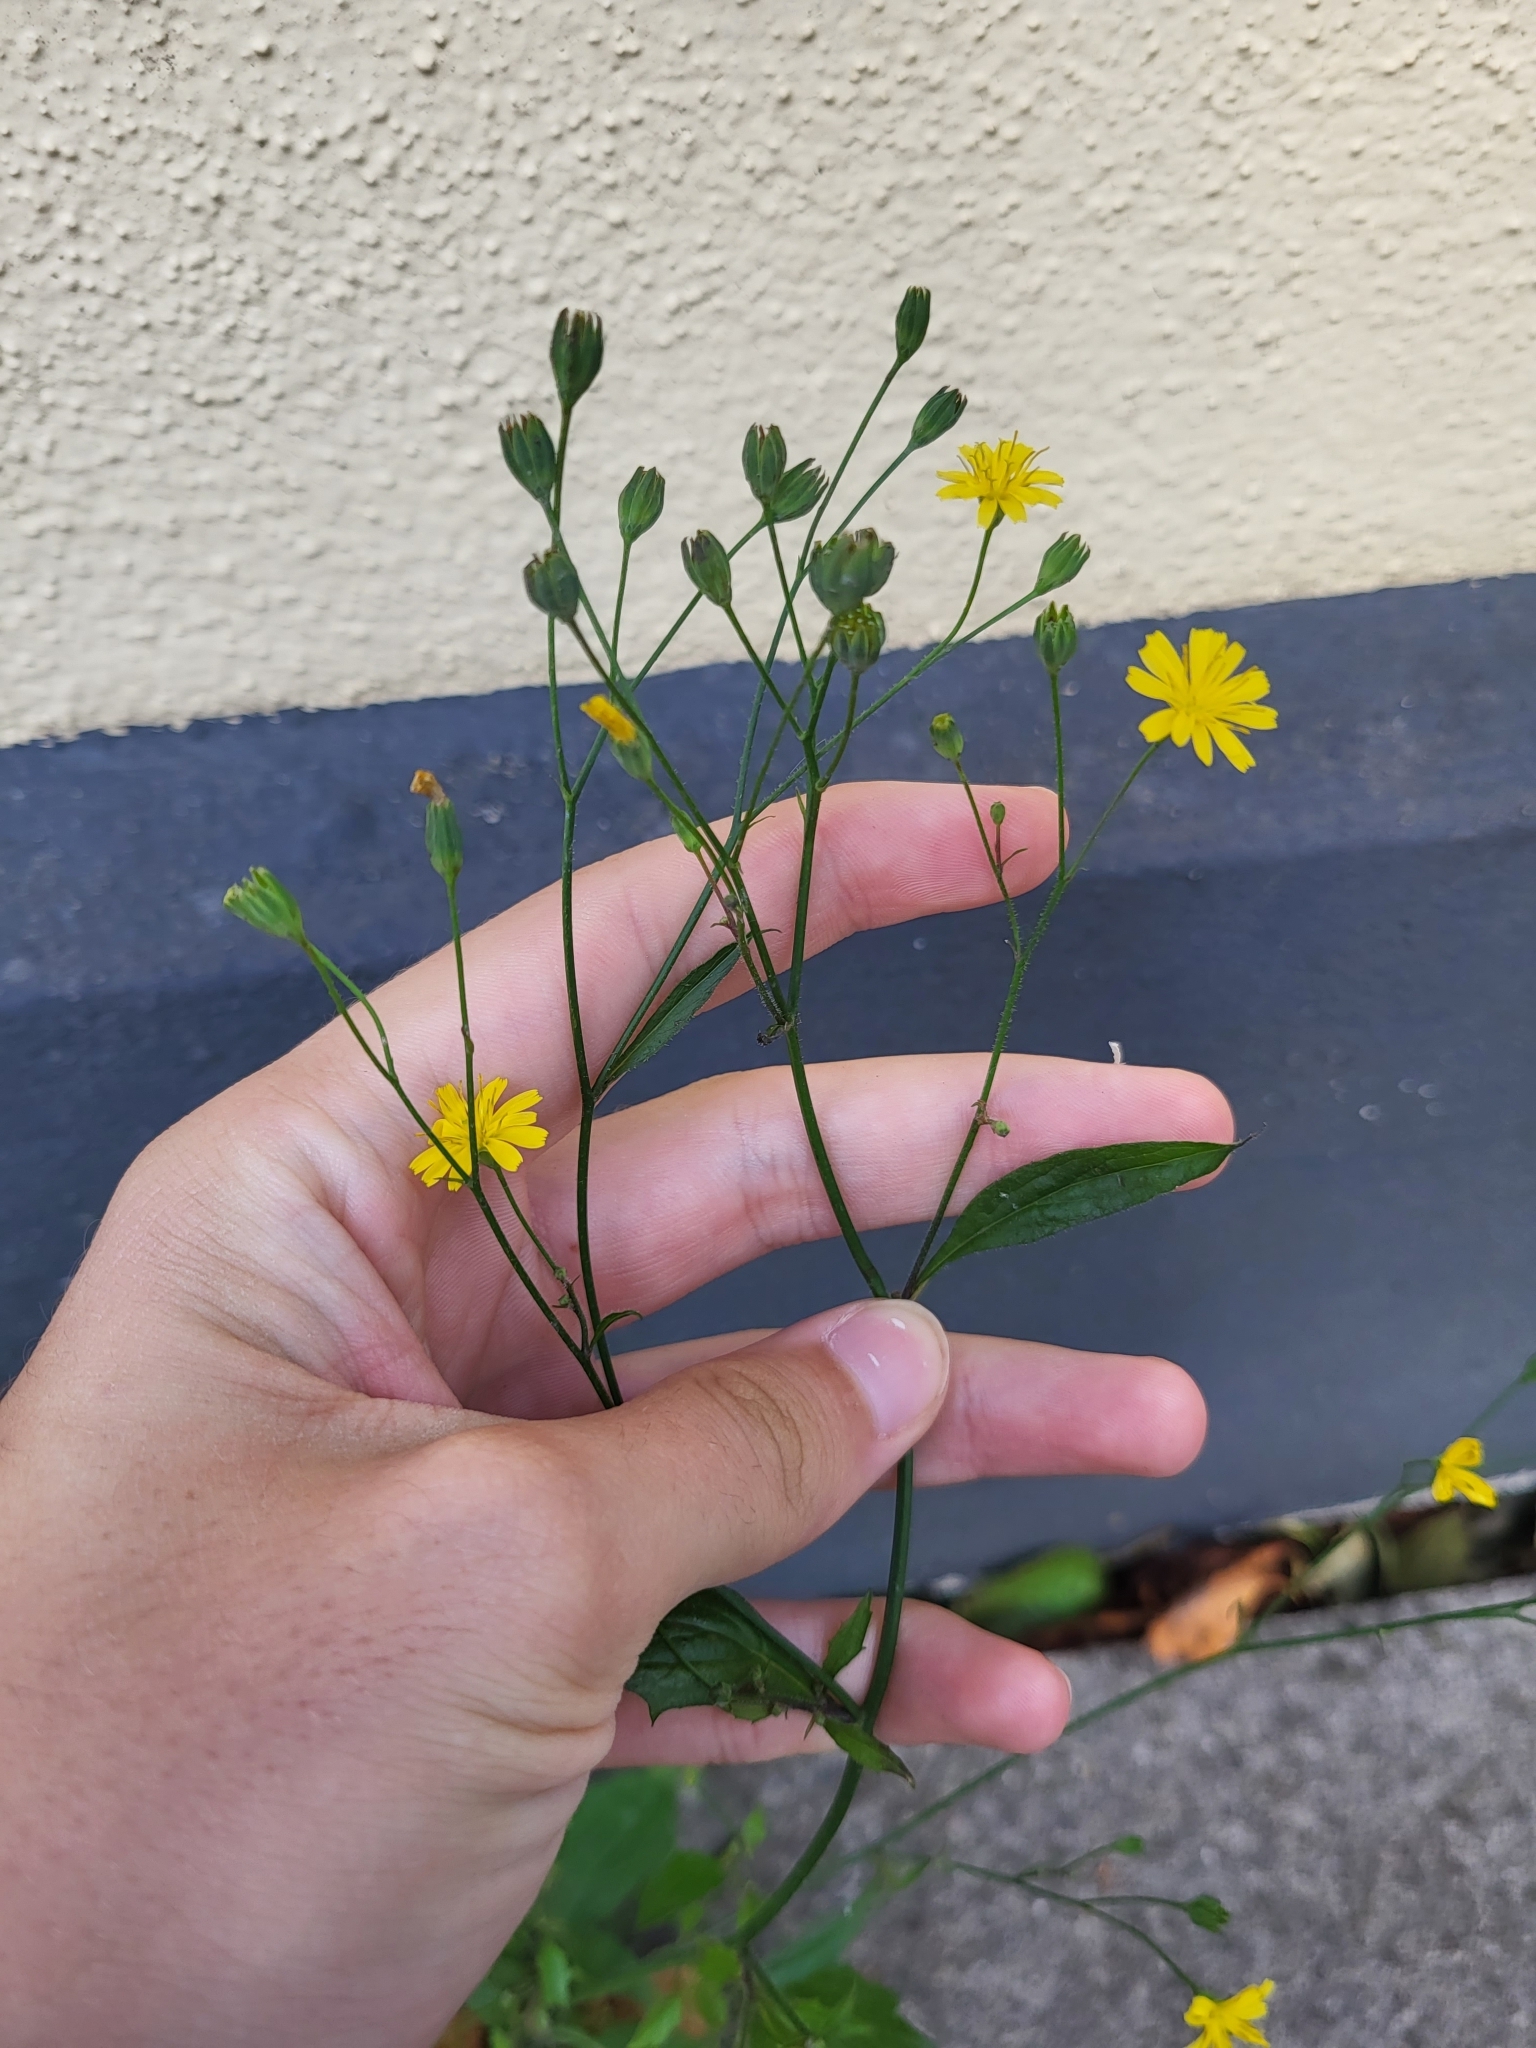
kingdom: Plantae
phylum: Tracheophyta
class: Magnoliopsida
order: Asterales
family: Asteraceae
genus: Lapsana
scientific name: Lapsana communis
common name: Nipplewort
